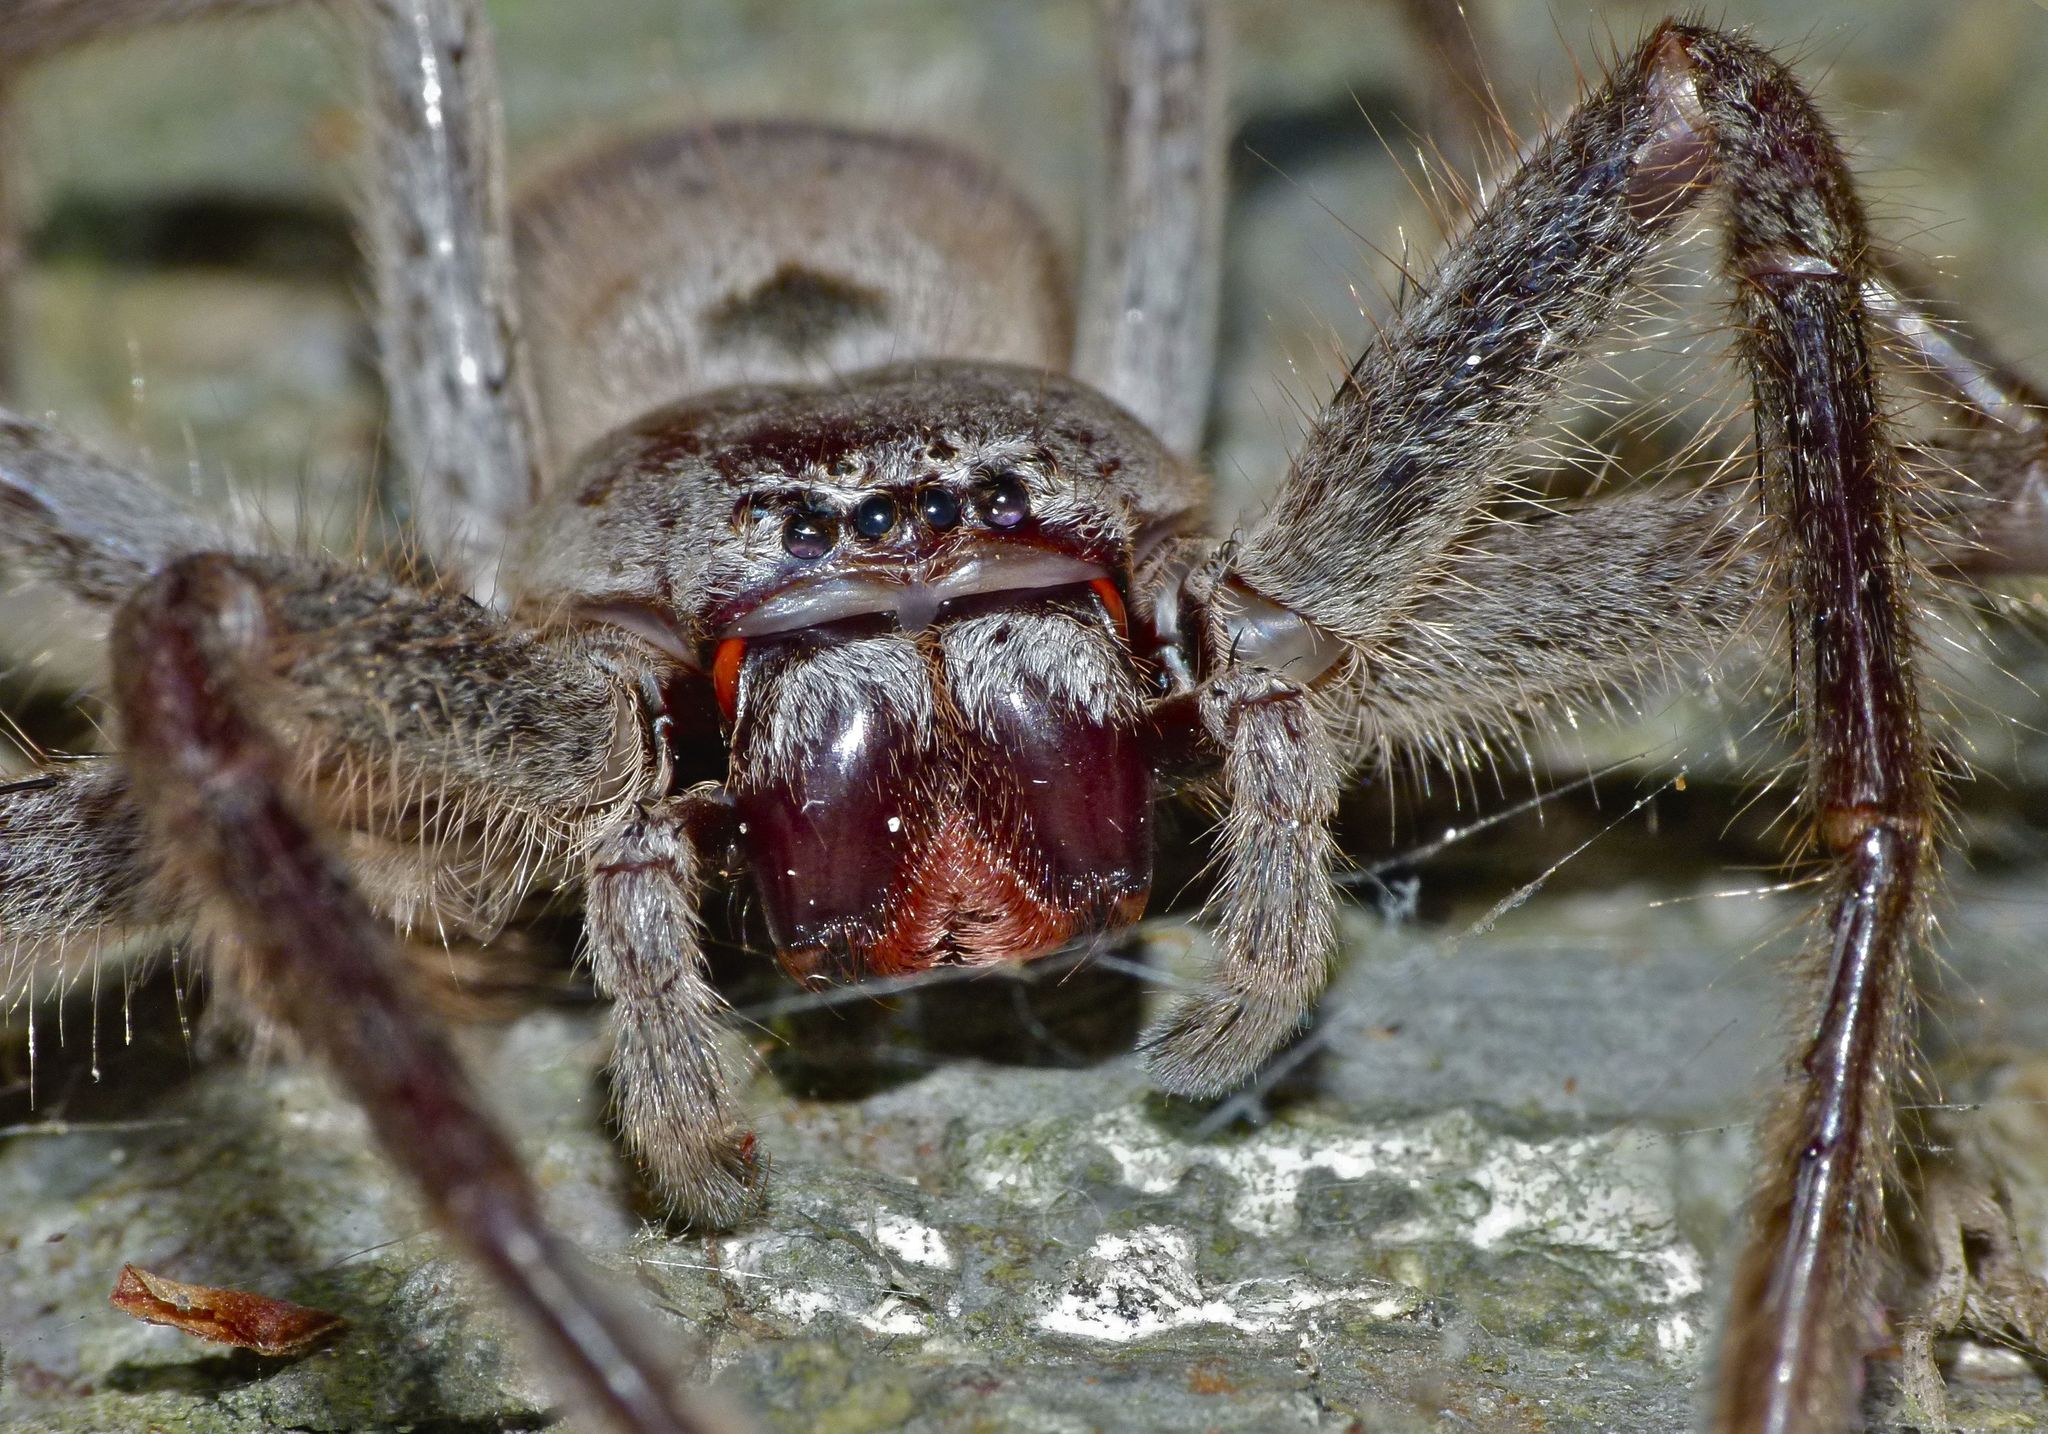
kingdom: Animalia
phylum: Arthropoda
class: Arachnida
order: Araneae
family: Sparassidae
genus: Isopeda
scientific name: Isopeda villosa
